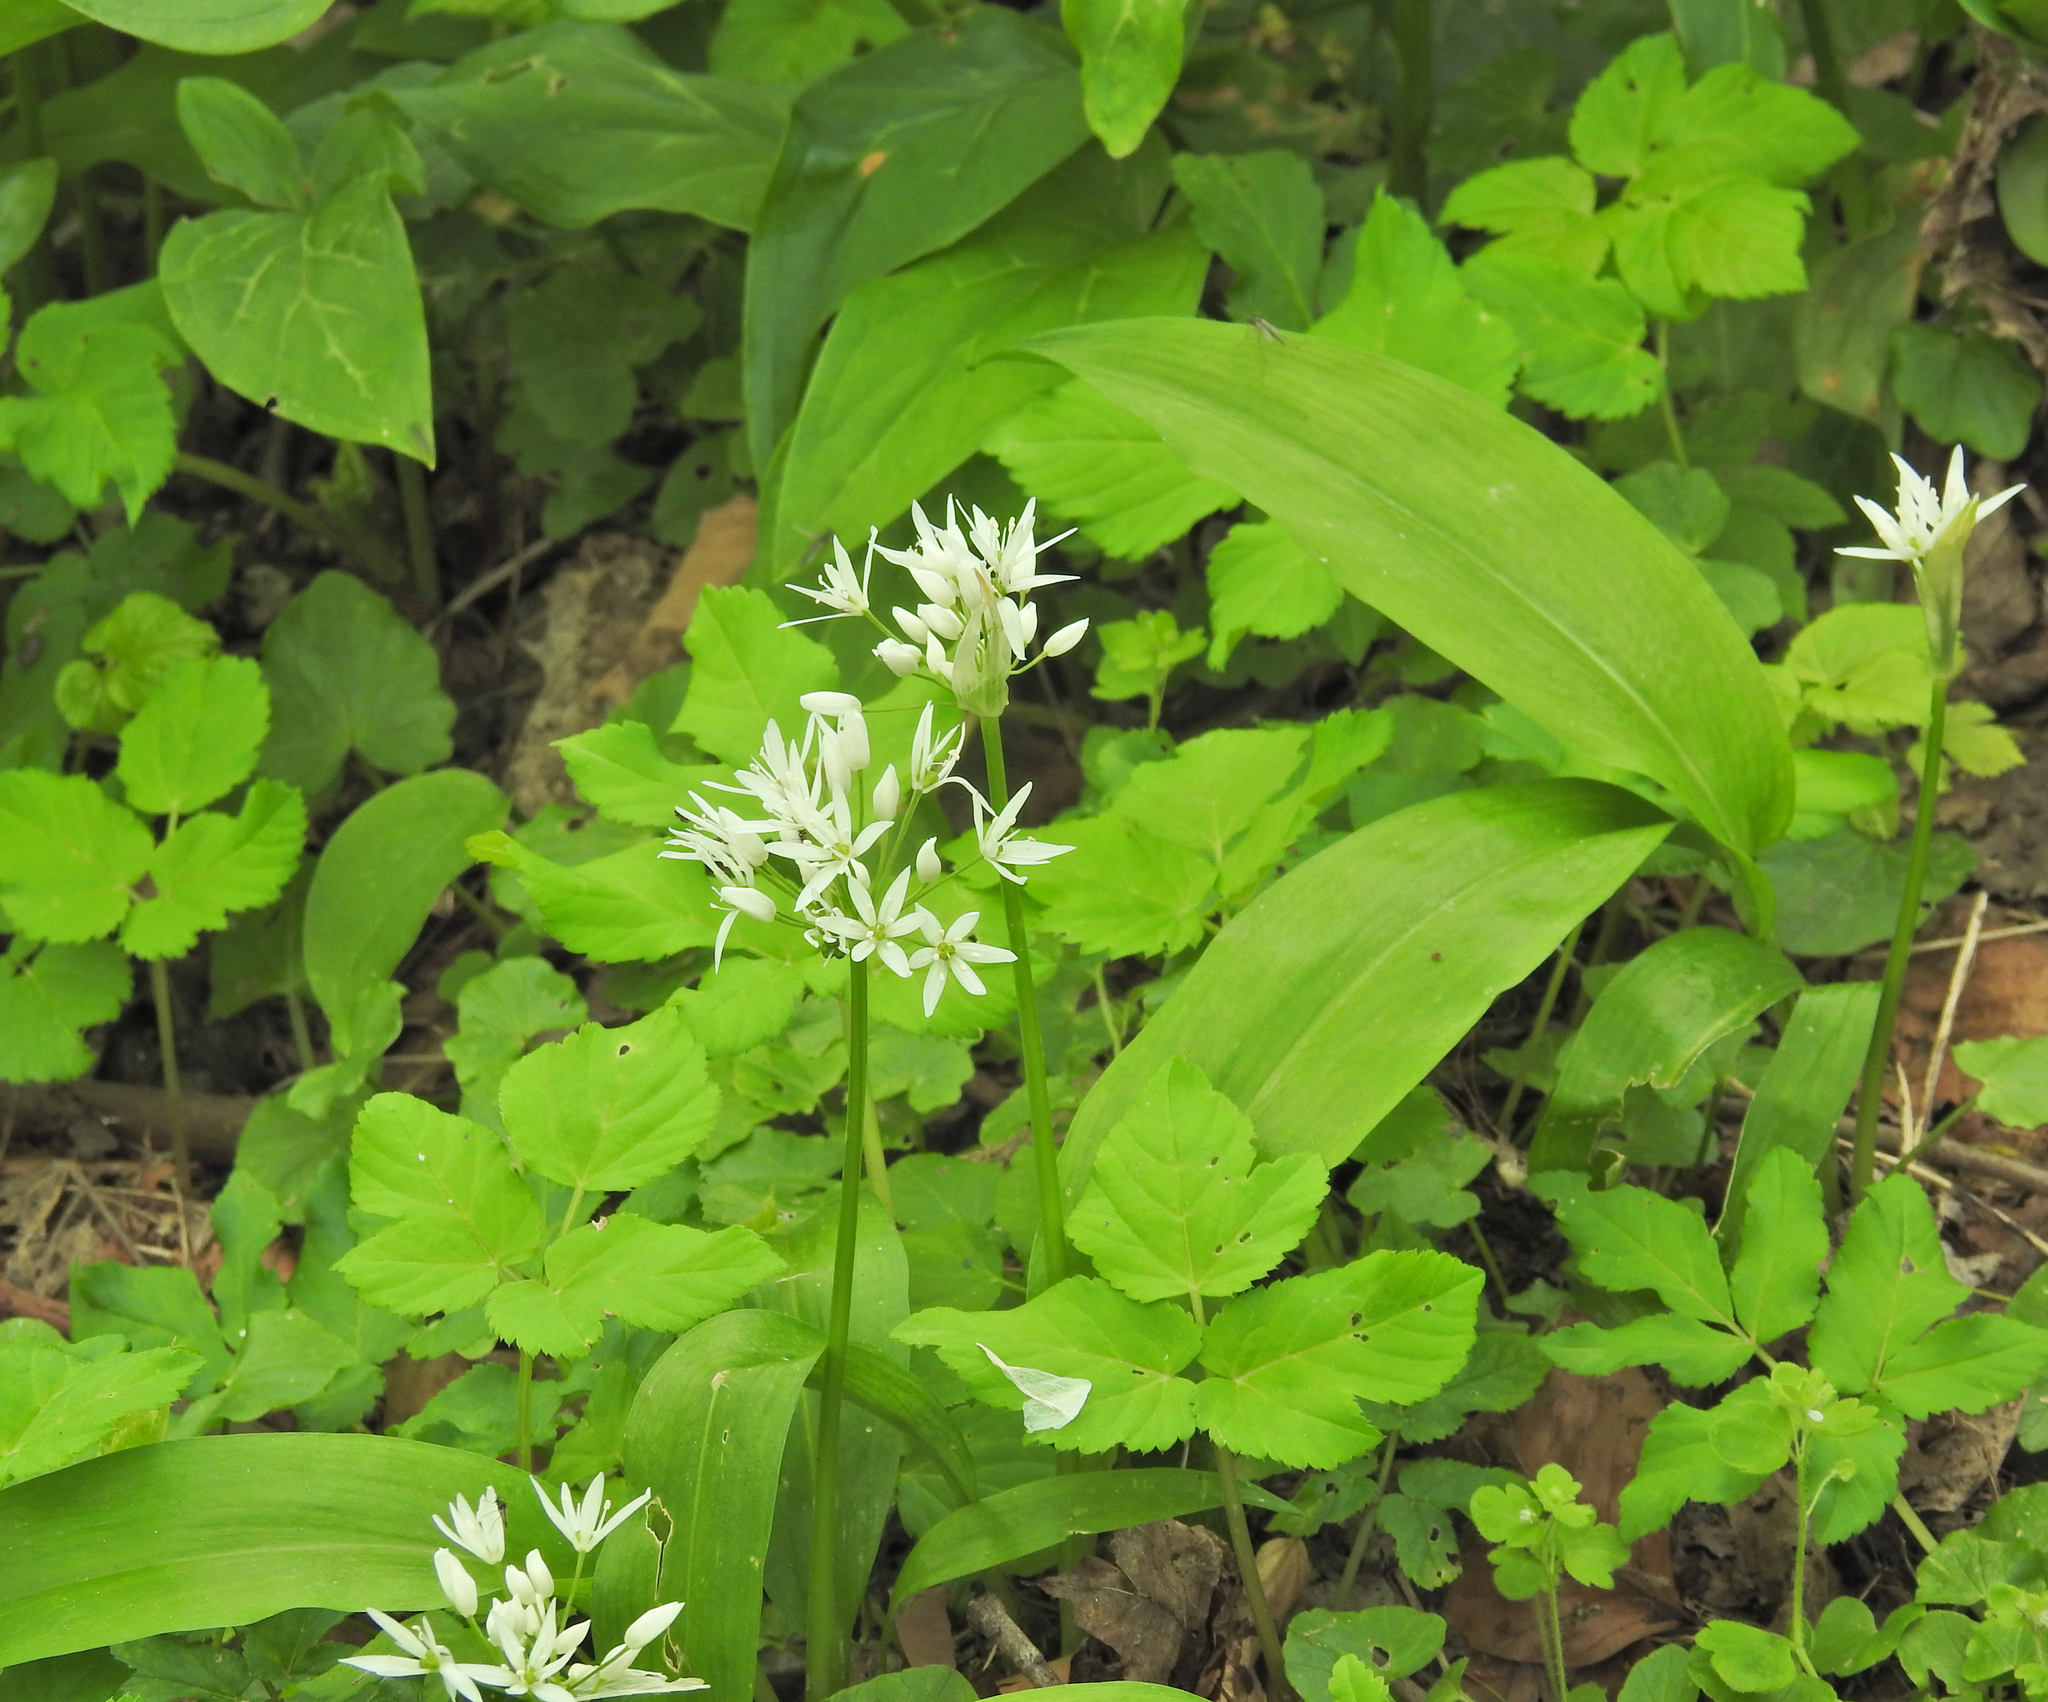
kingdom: Plantae
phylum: Tracheophyta
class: Liliopsida
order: Asparagales
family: Amaryllidaceae
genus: Allium
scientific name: Allium ursinum
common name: Ramsons
